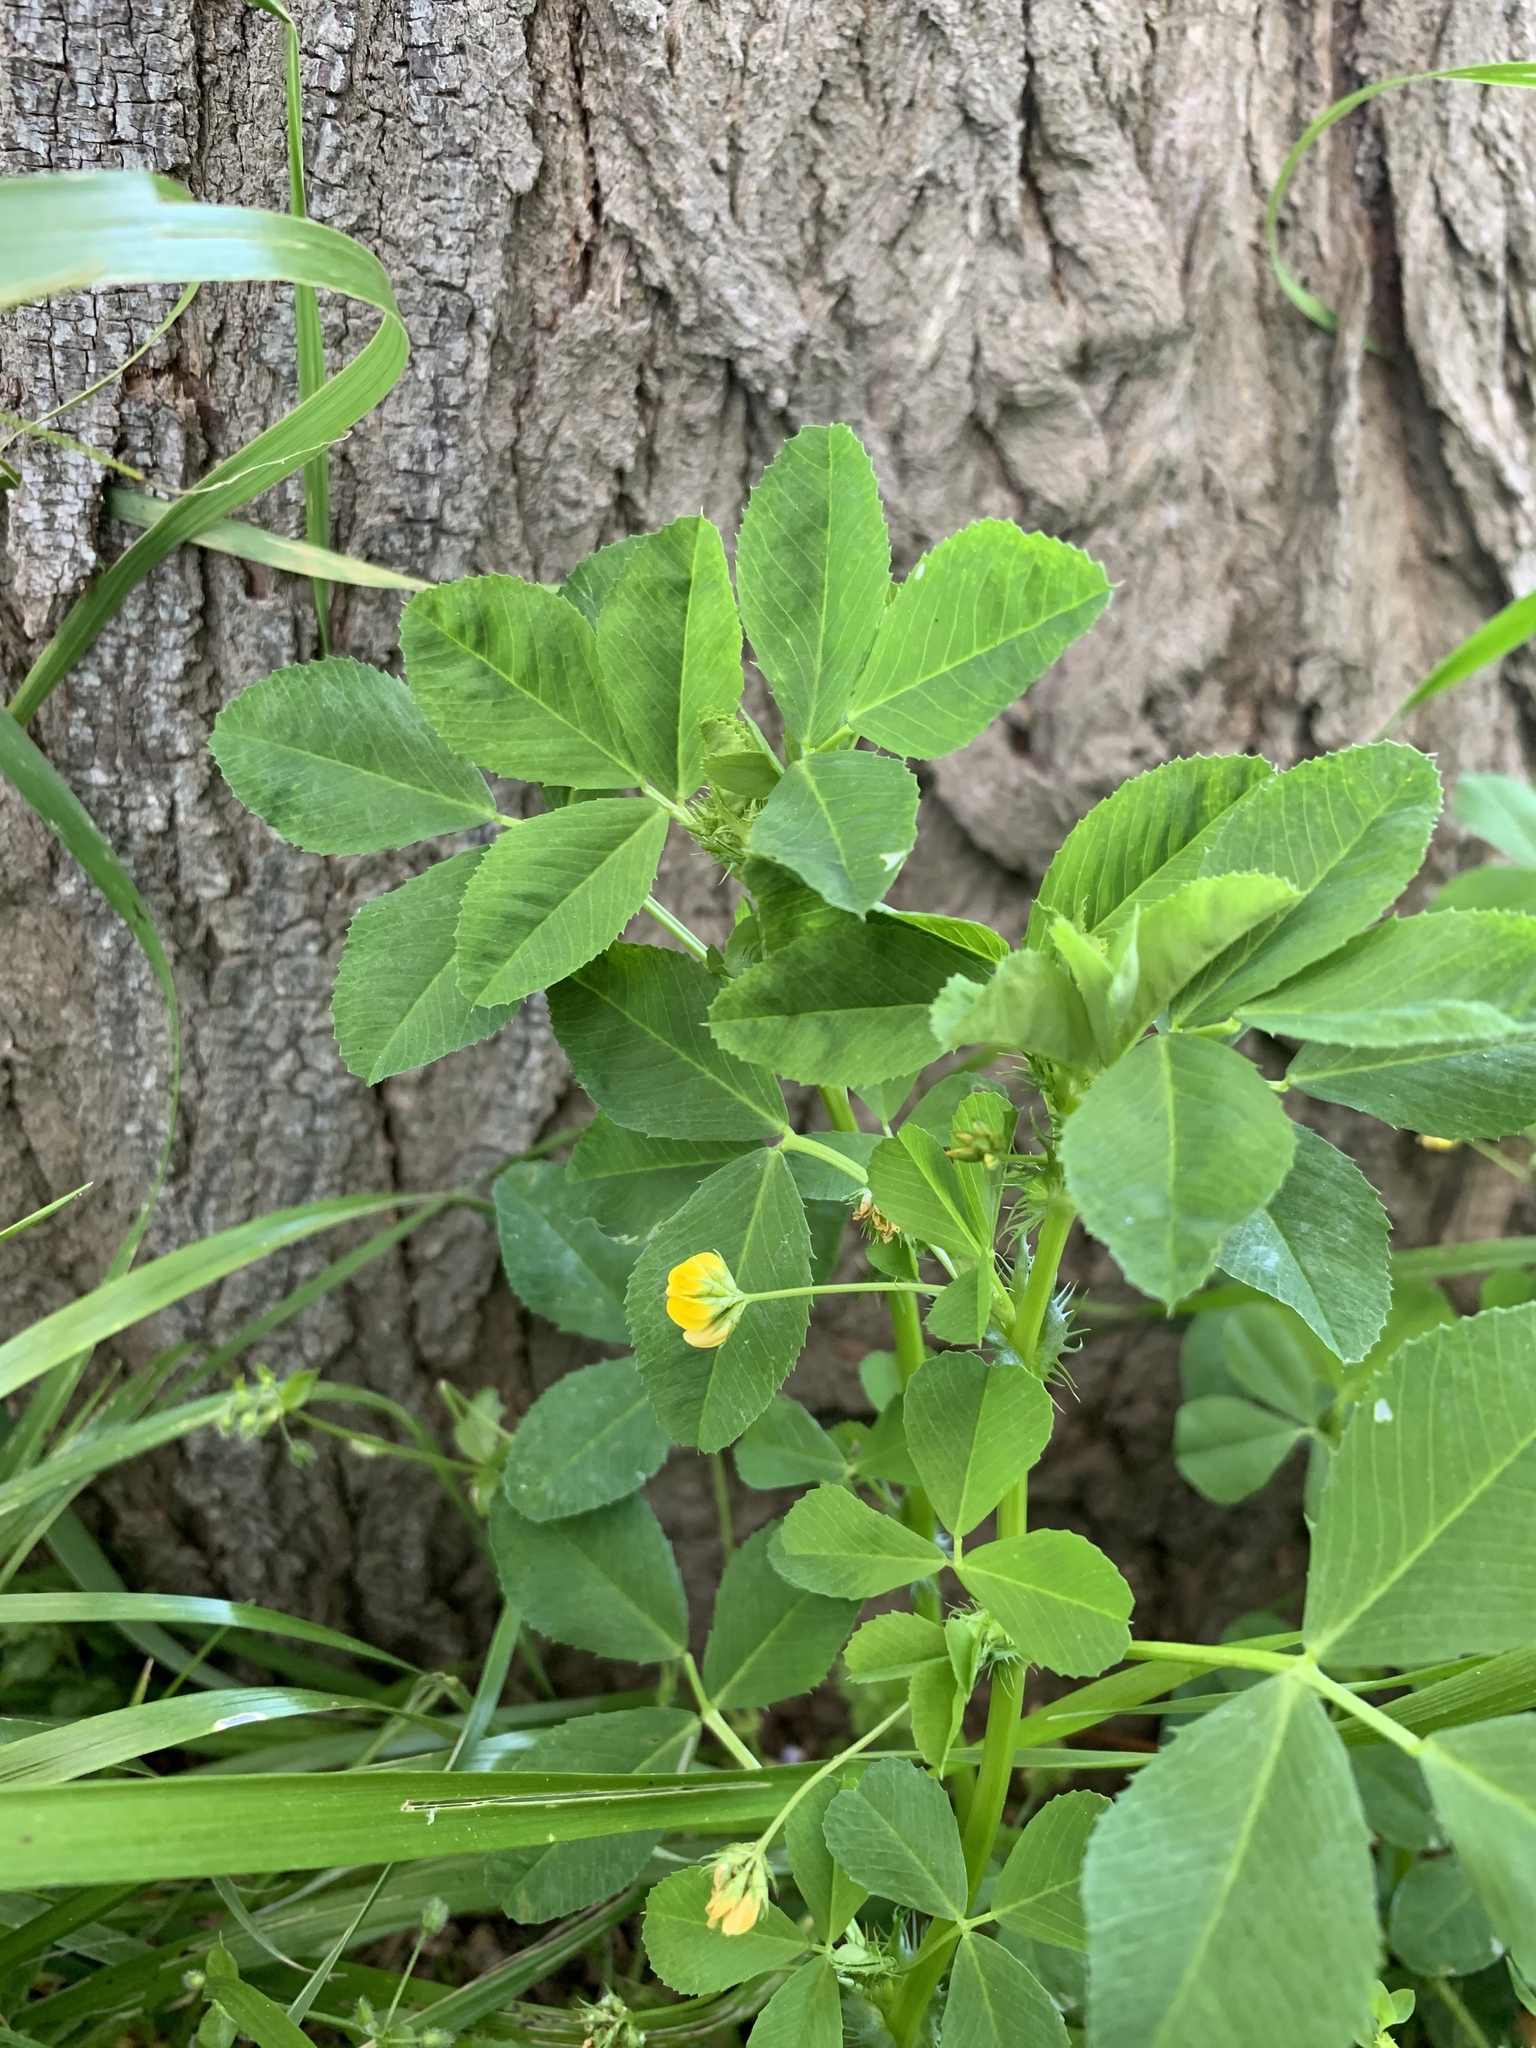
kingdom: Plantae
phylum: Tracheophyta
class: Magnoliopsida
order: Fabales
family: Fabaceae
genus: Medicago
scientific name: Medicago polymorpha
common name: Burclover
